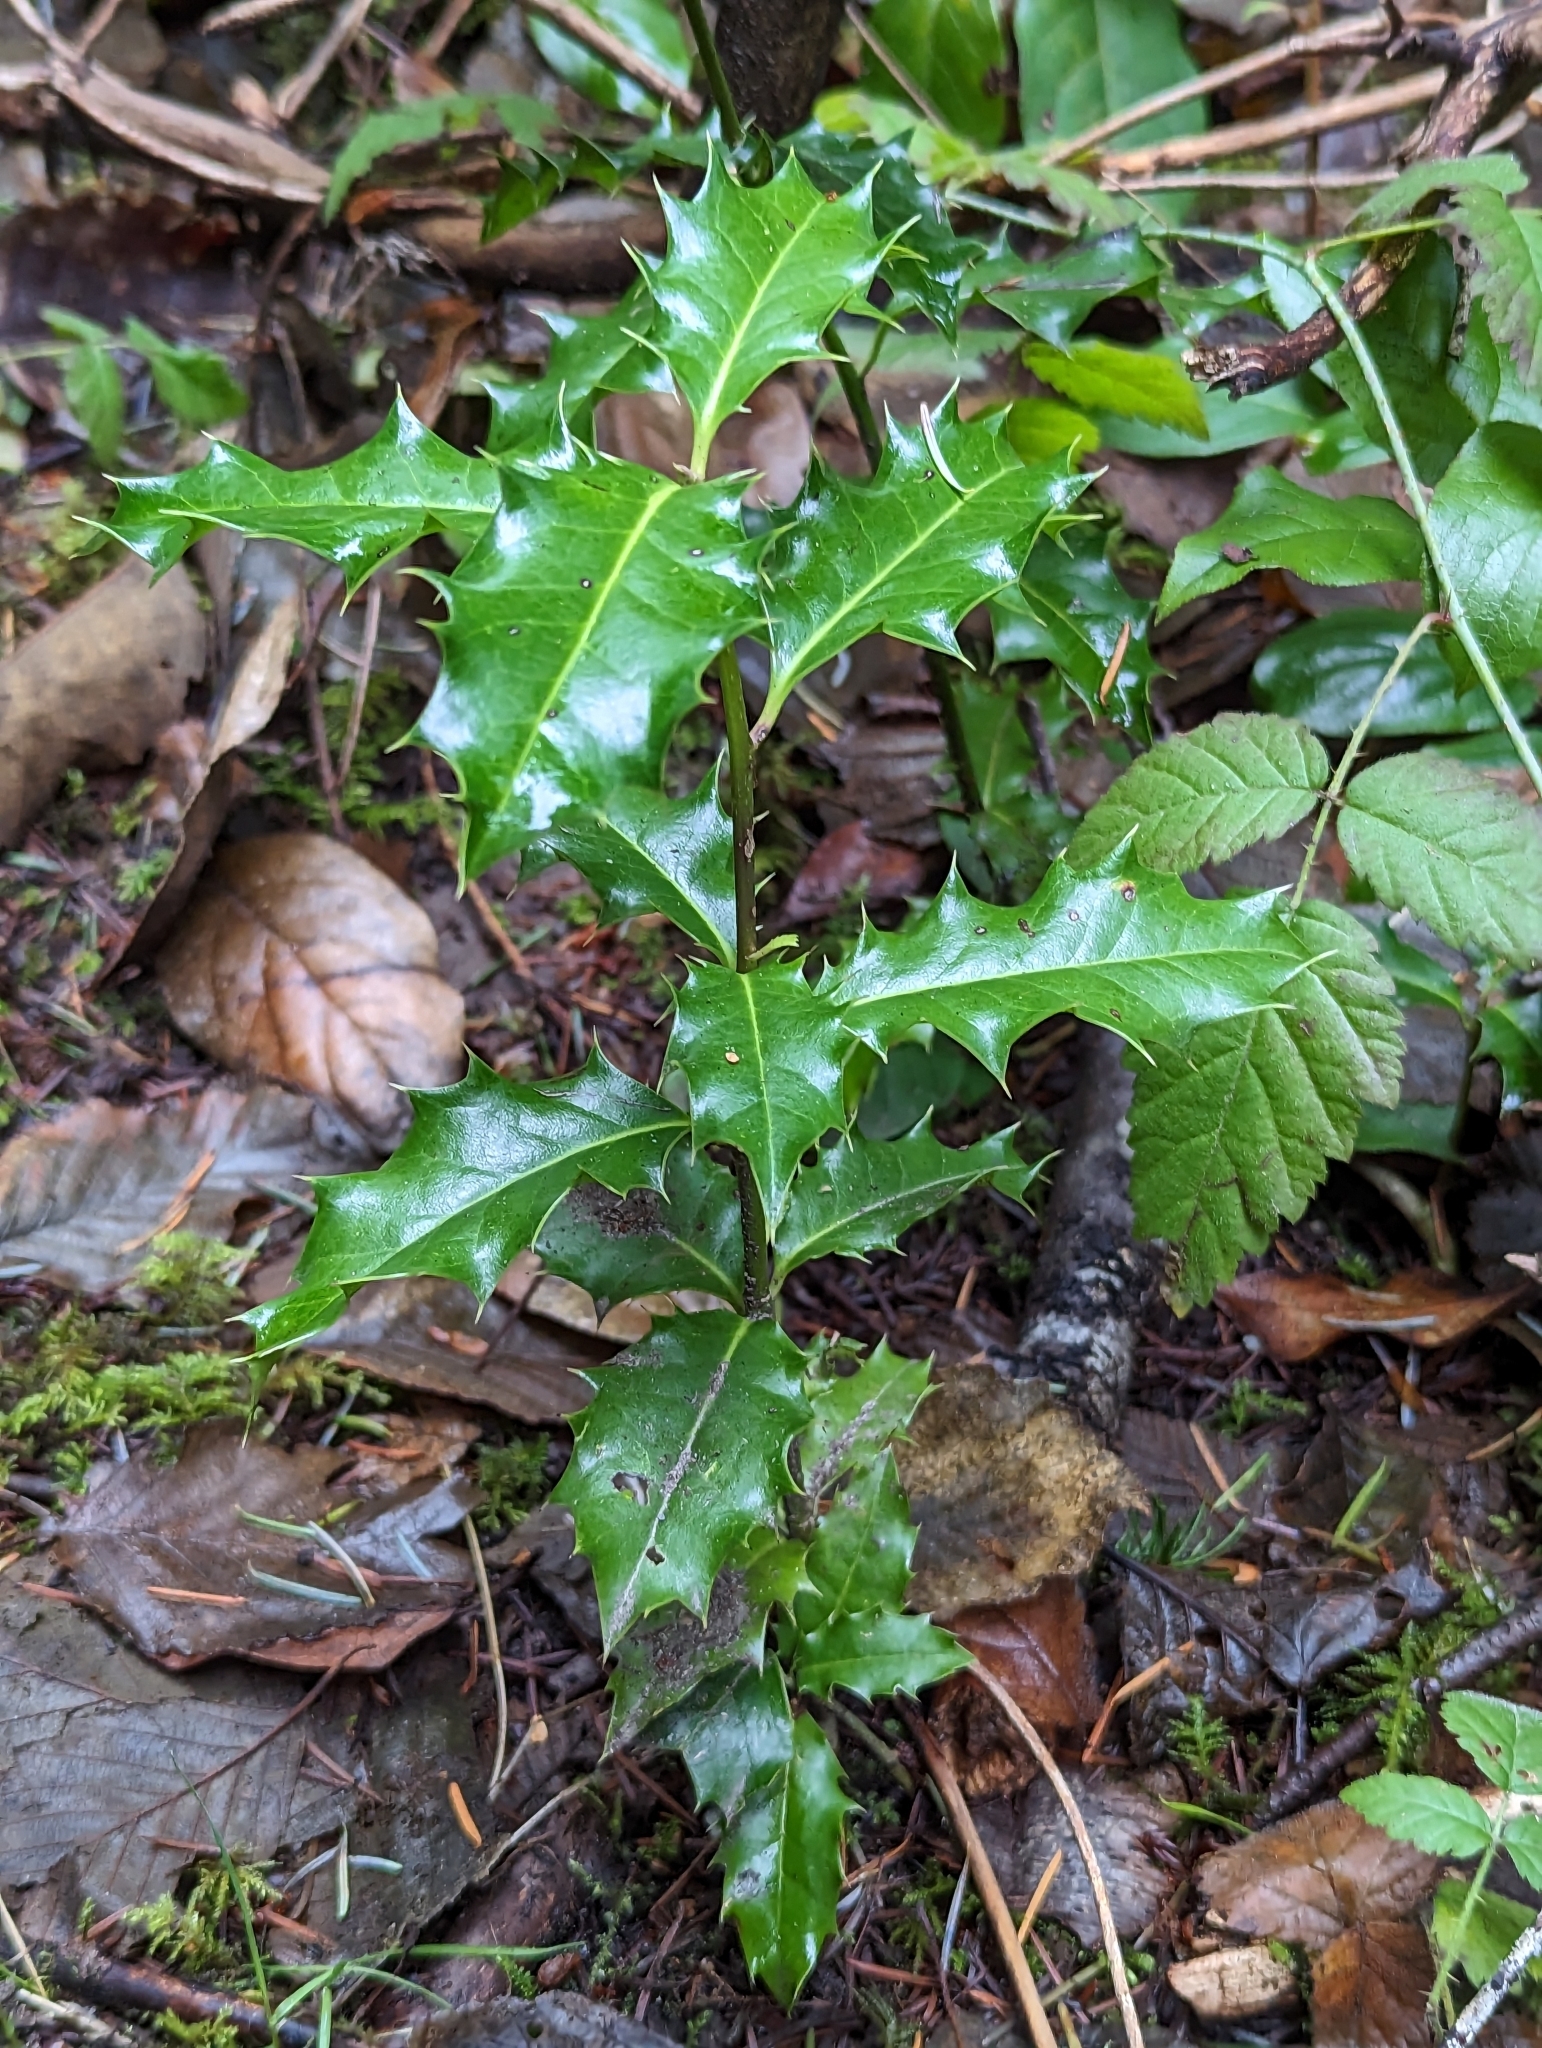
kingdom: Plantae
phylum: Tracheophyta
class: Magnoliopsida
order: Aquifoliales
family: Aquifoliaceae
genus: Ilex
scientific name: Ilex aquifolium
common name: English holly
